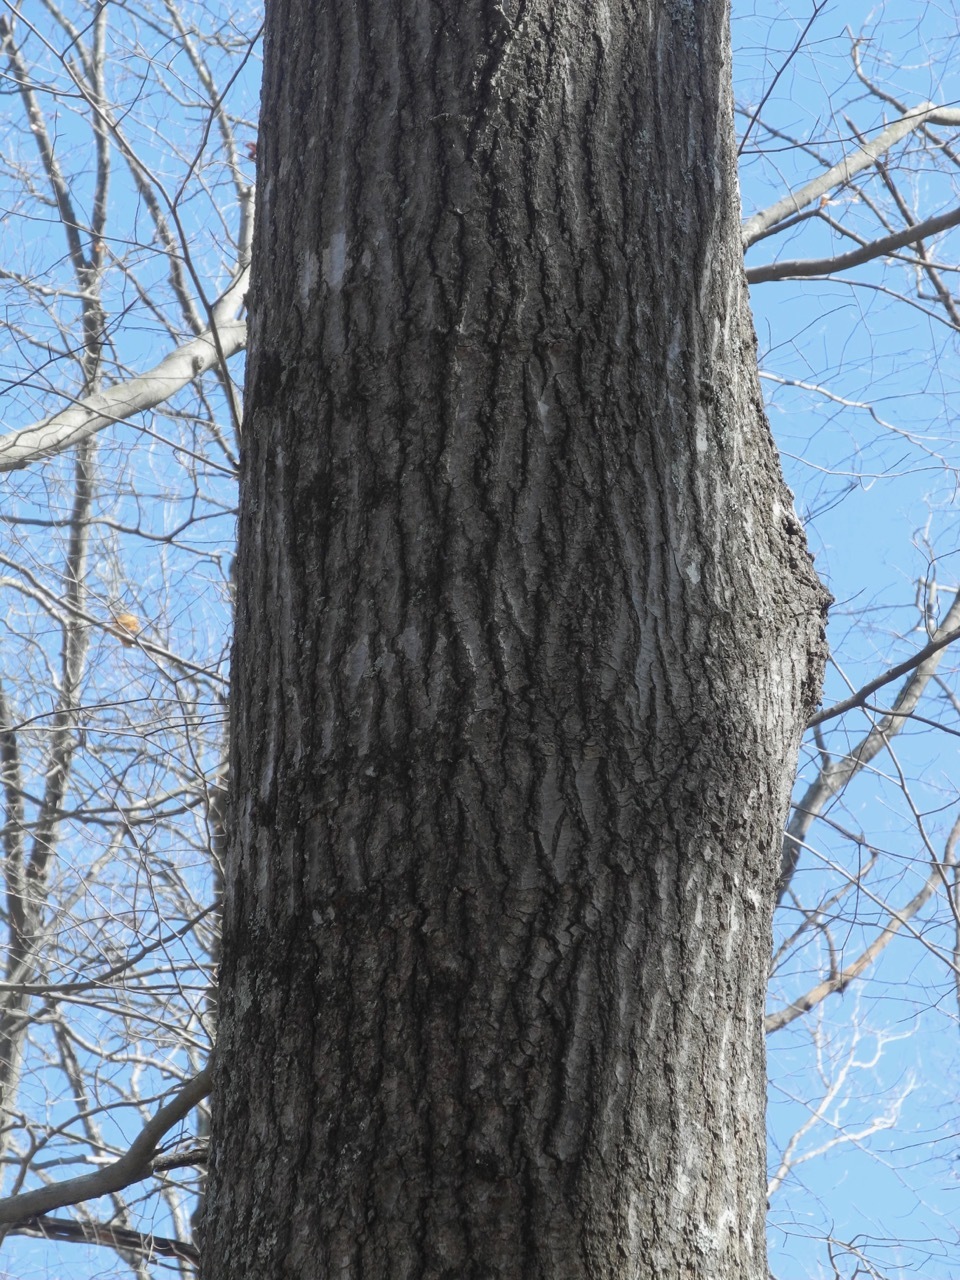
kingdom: Plantae
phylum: Tracheophyta
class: Magnoliopsida
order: Fagales
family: Fagaceae
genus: Quercus
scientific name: Quercus coccinea
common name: Scarlet oak
